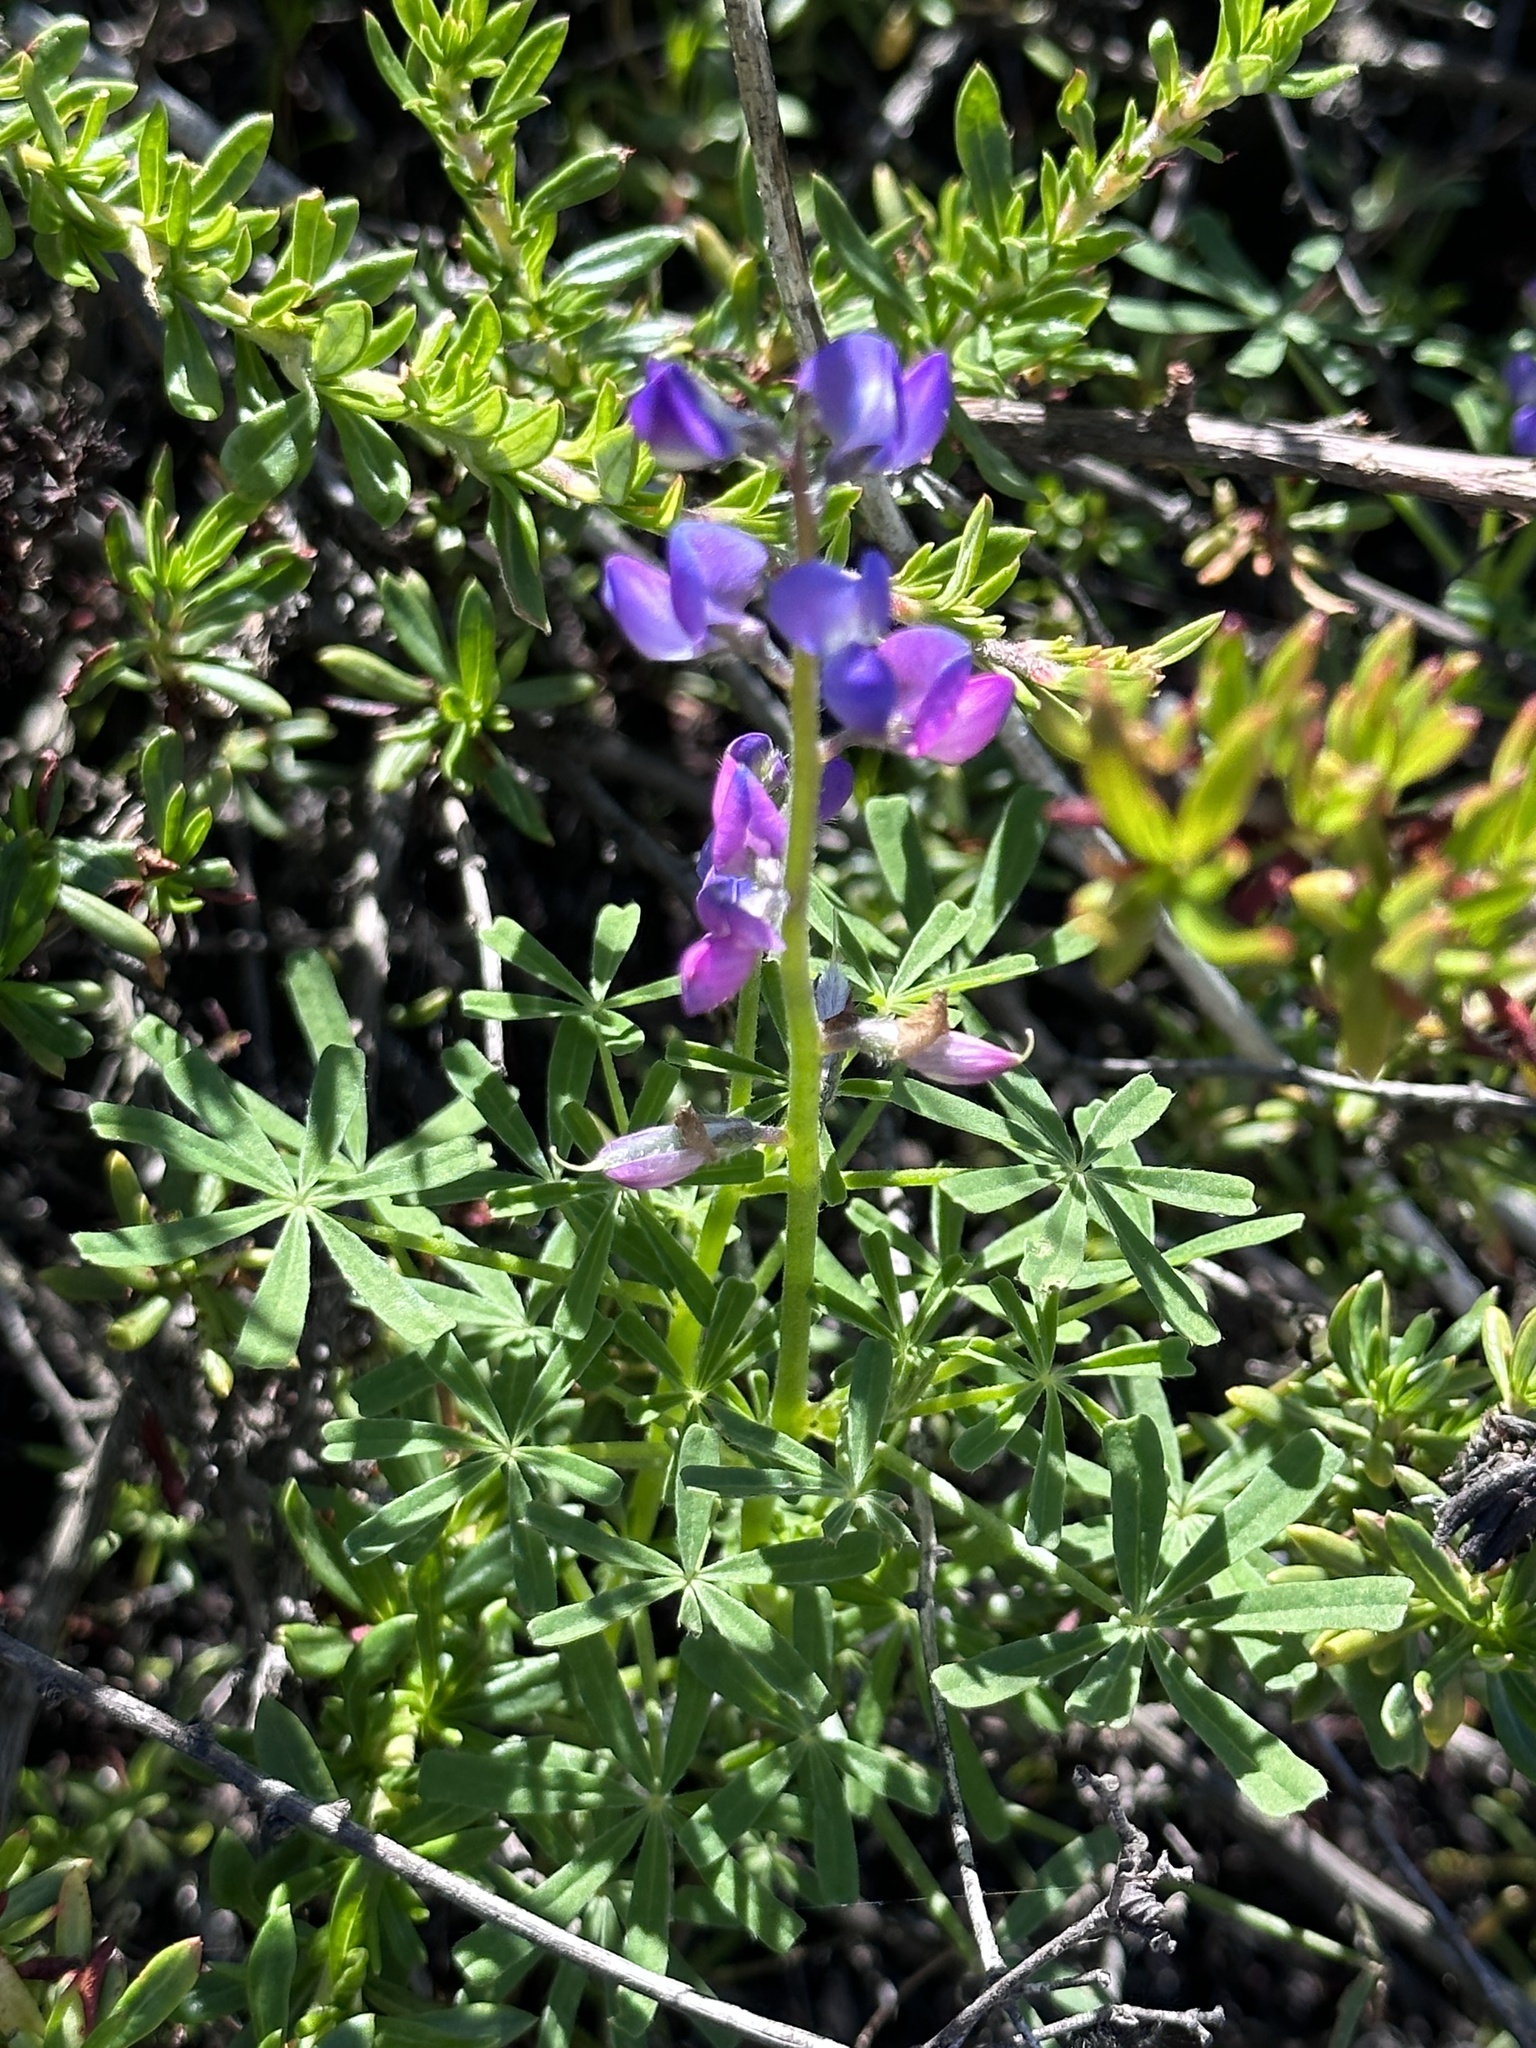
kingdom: Plantae
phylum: Tracheophyta
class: Magnoliopsida
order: Fabales
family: Fabaceae
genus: Lupinus
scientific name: Lupinus truncatus
